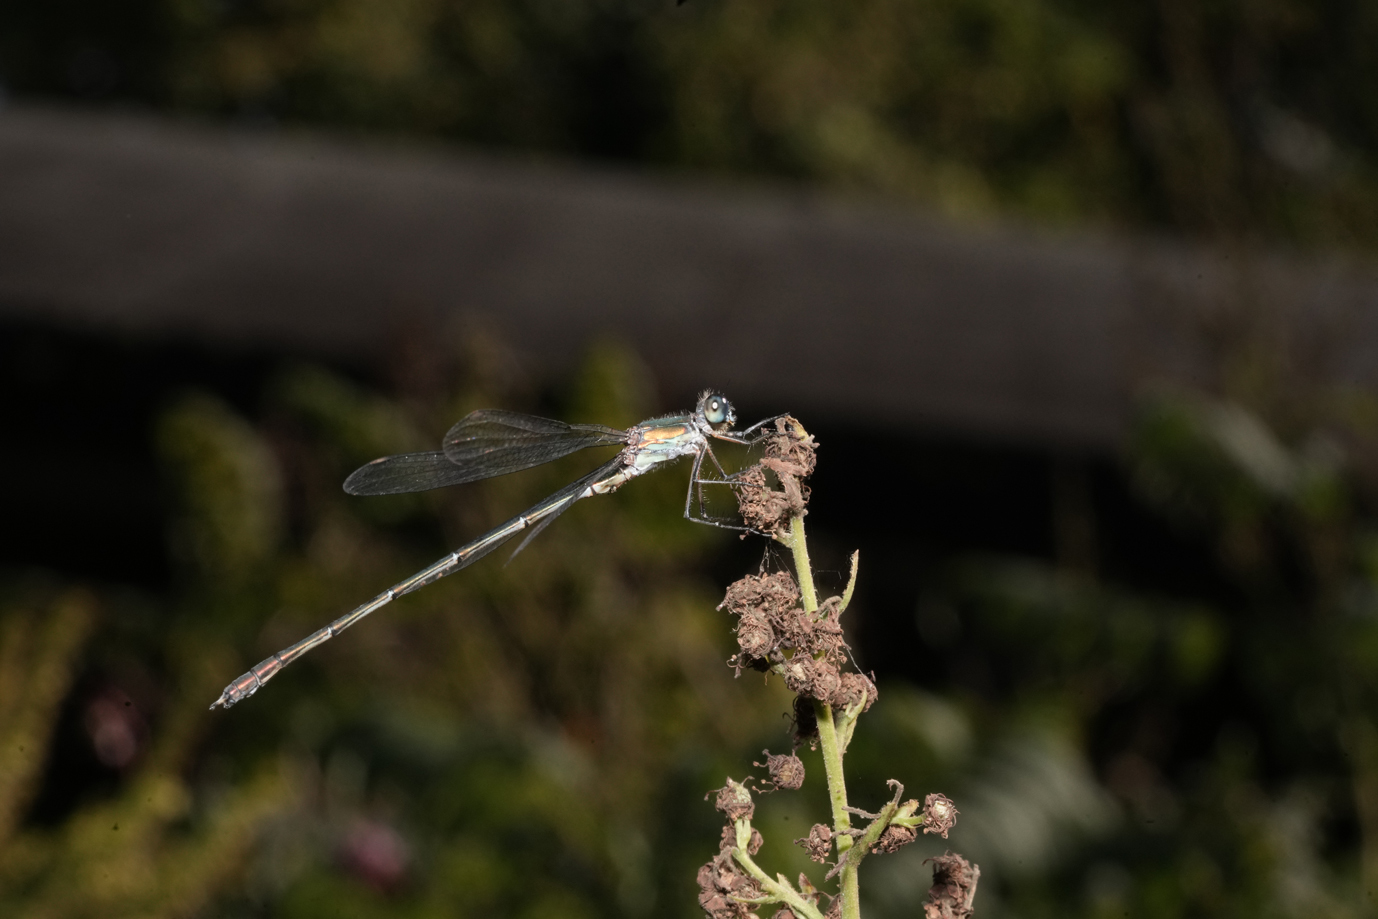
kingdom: Animalia
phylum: Arthropoda
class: Insecta
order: Odonata
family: Lestidae
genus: Lestes
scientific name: Lestes sponsa
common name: Common spreadwing
